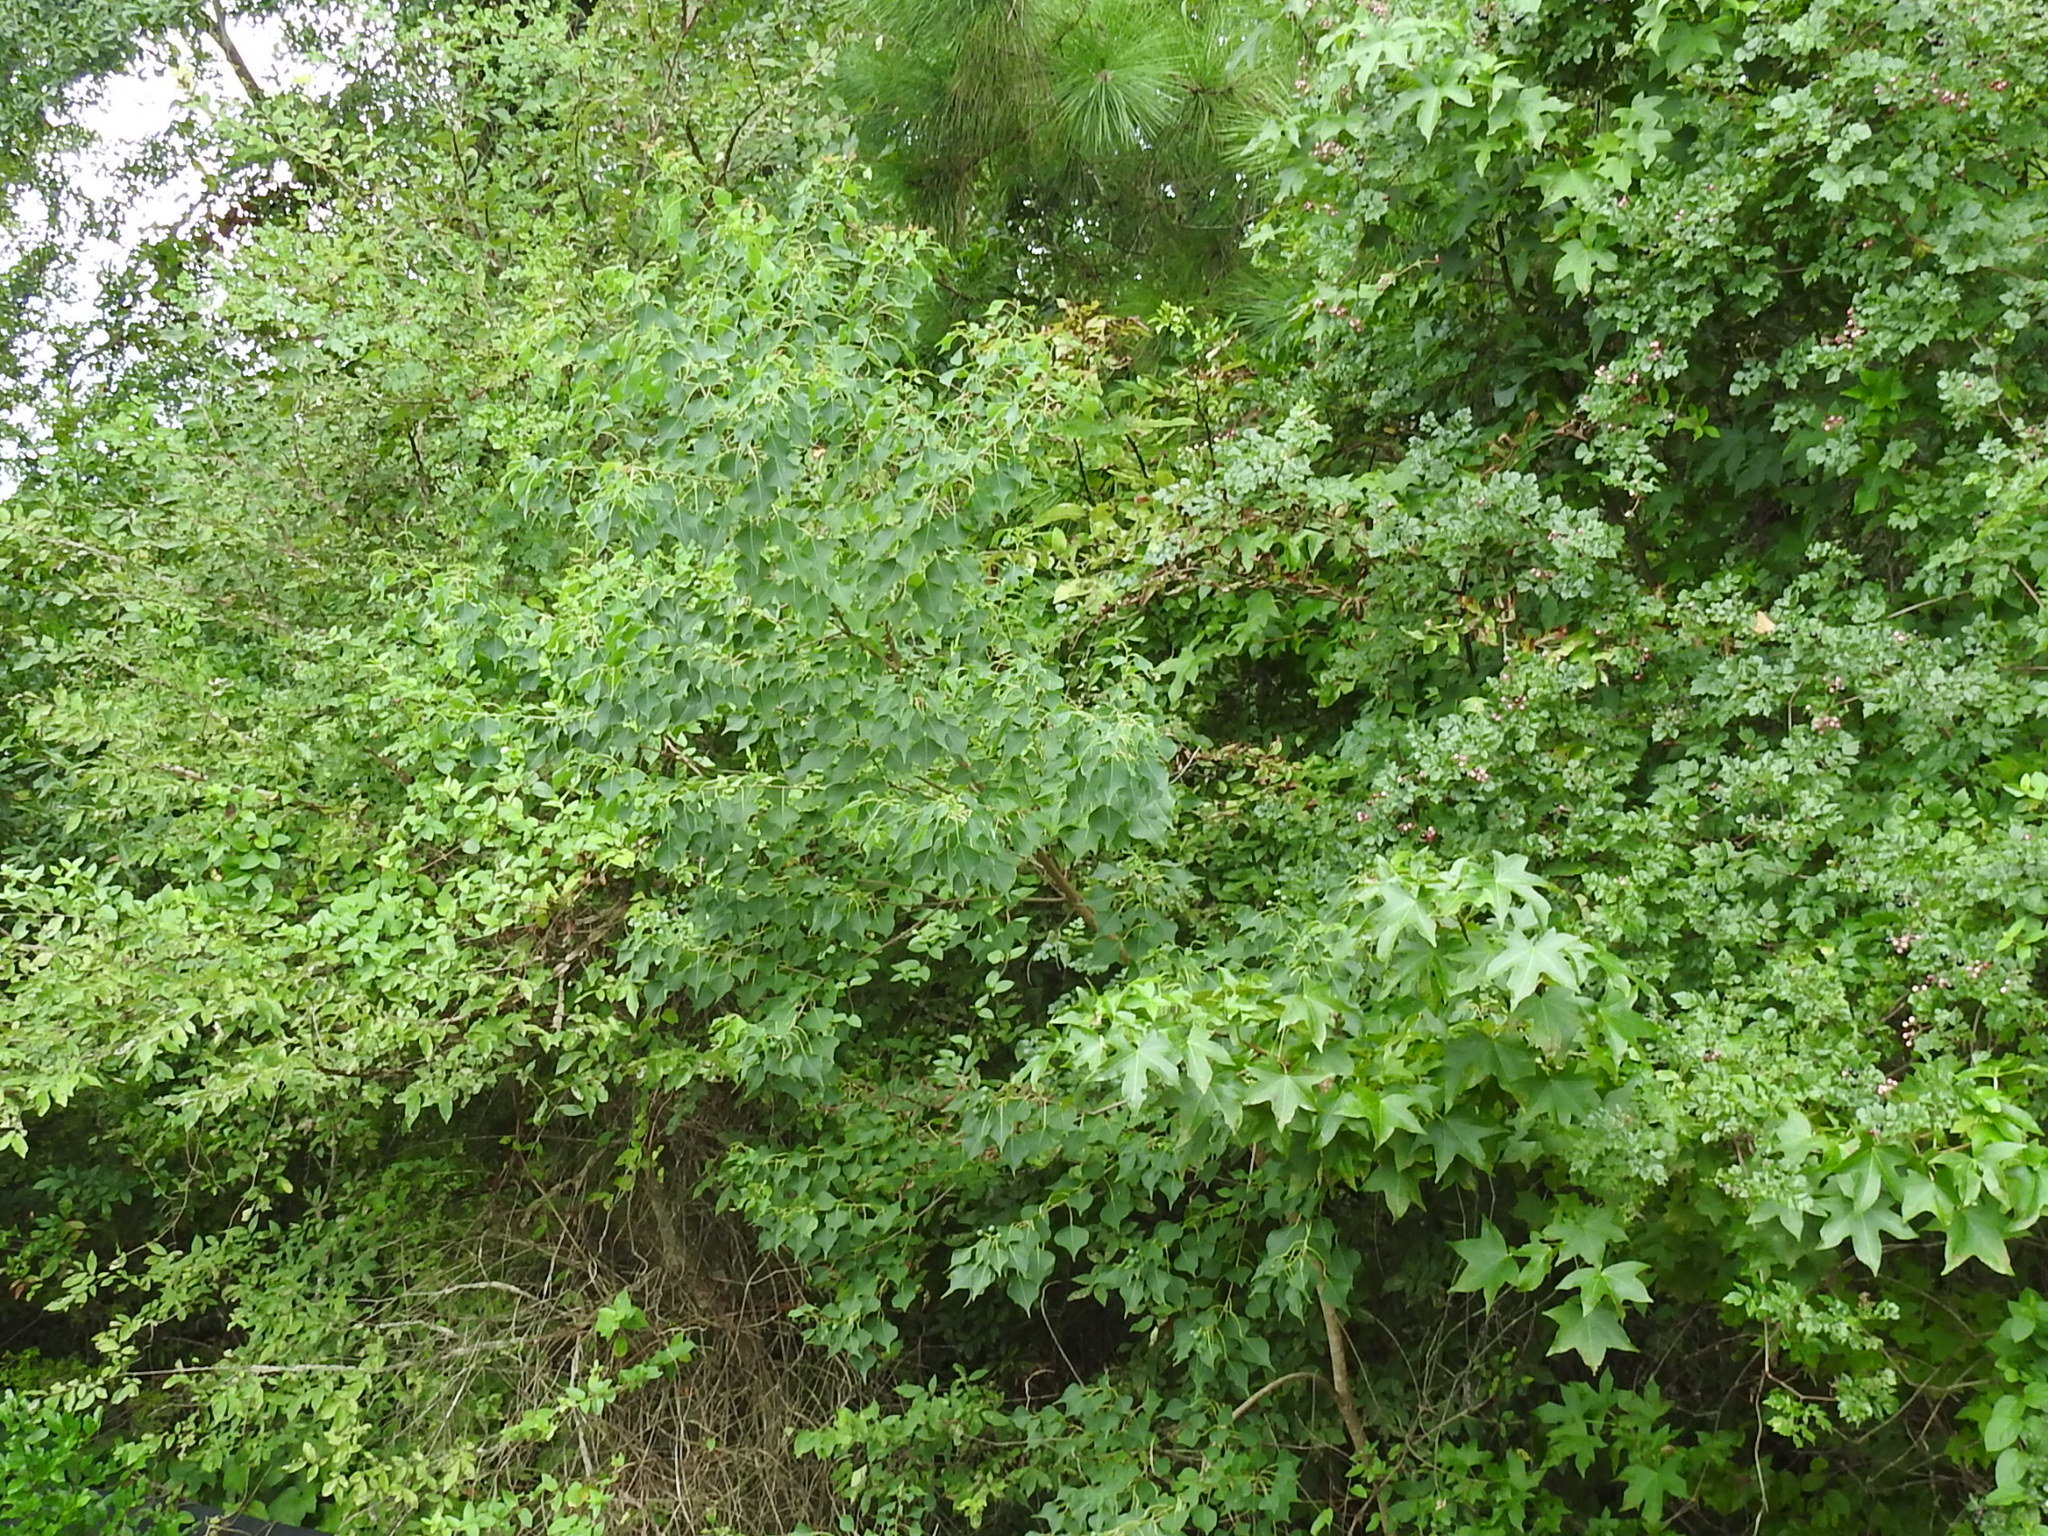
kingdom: Plantae
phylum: Tracheophyta
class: Magnoliopsida
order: Malpighiales
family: Euphorbiaceae
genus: Triadica
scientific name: Triadica sebifera
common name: Chinese tallow
